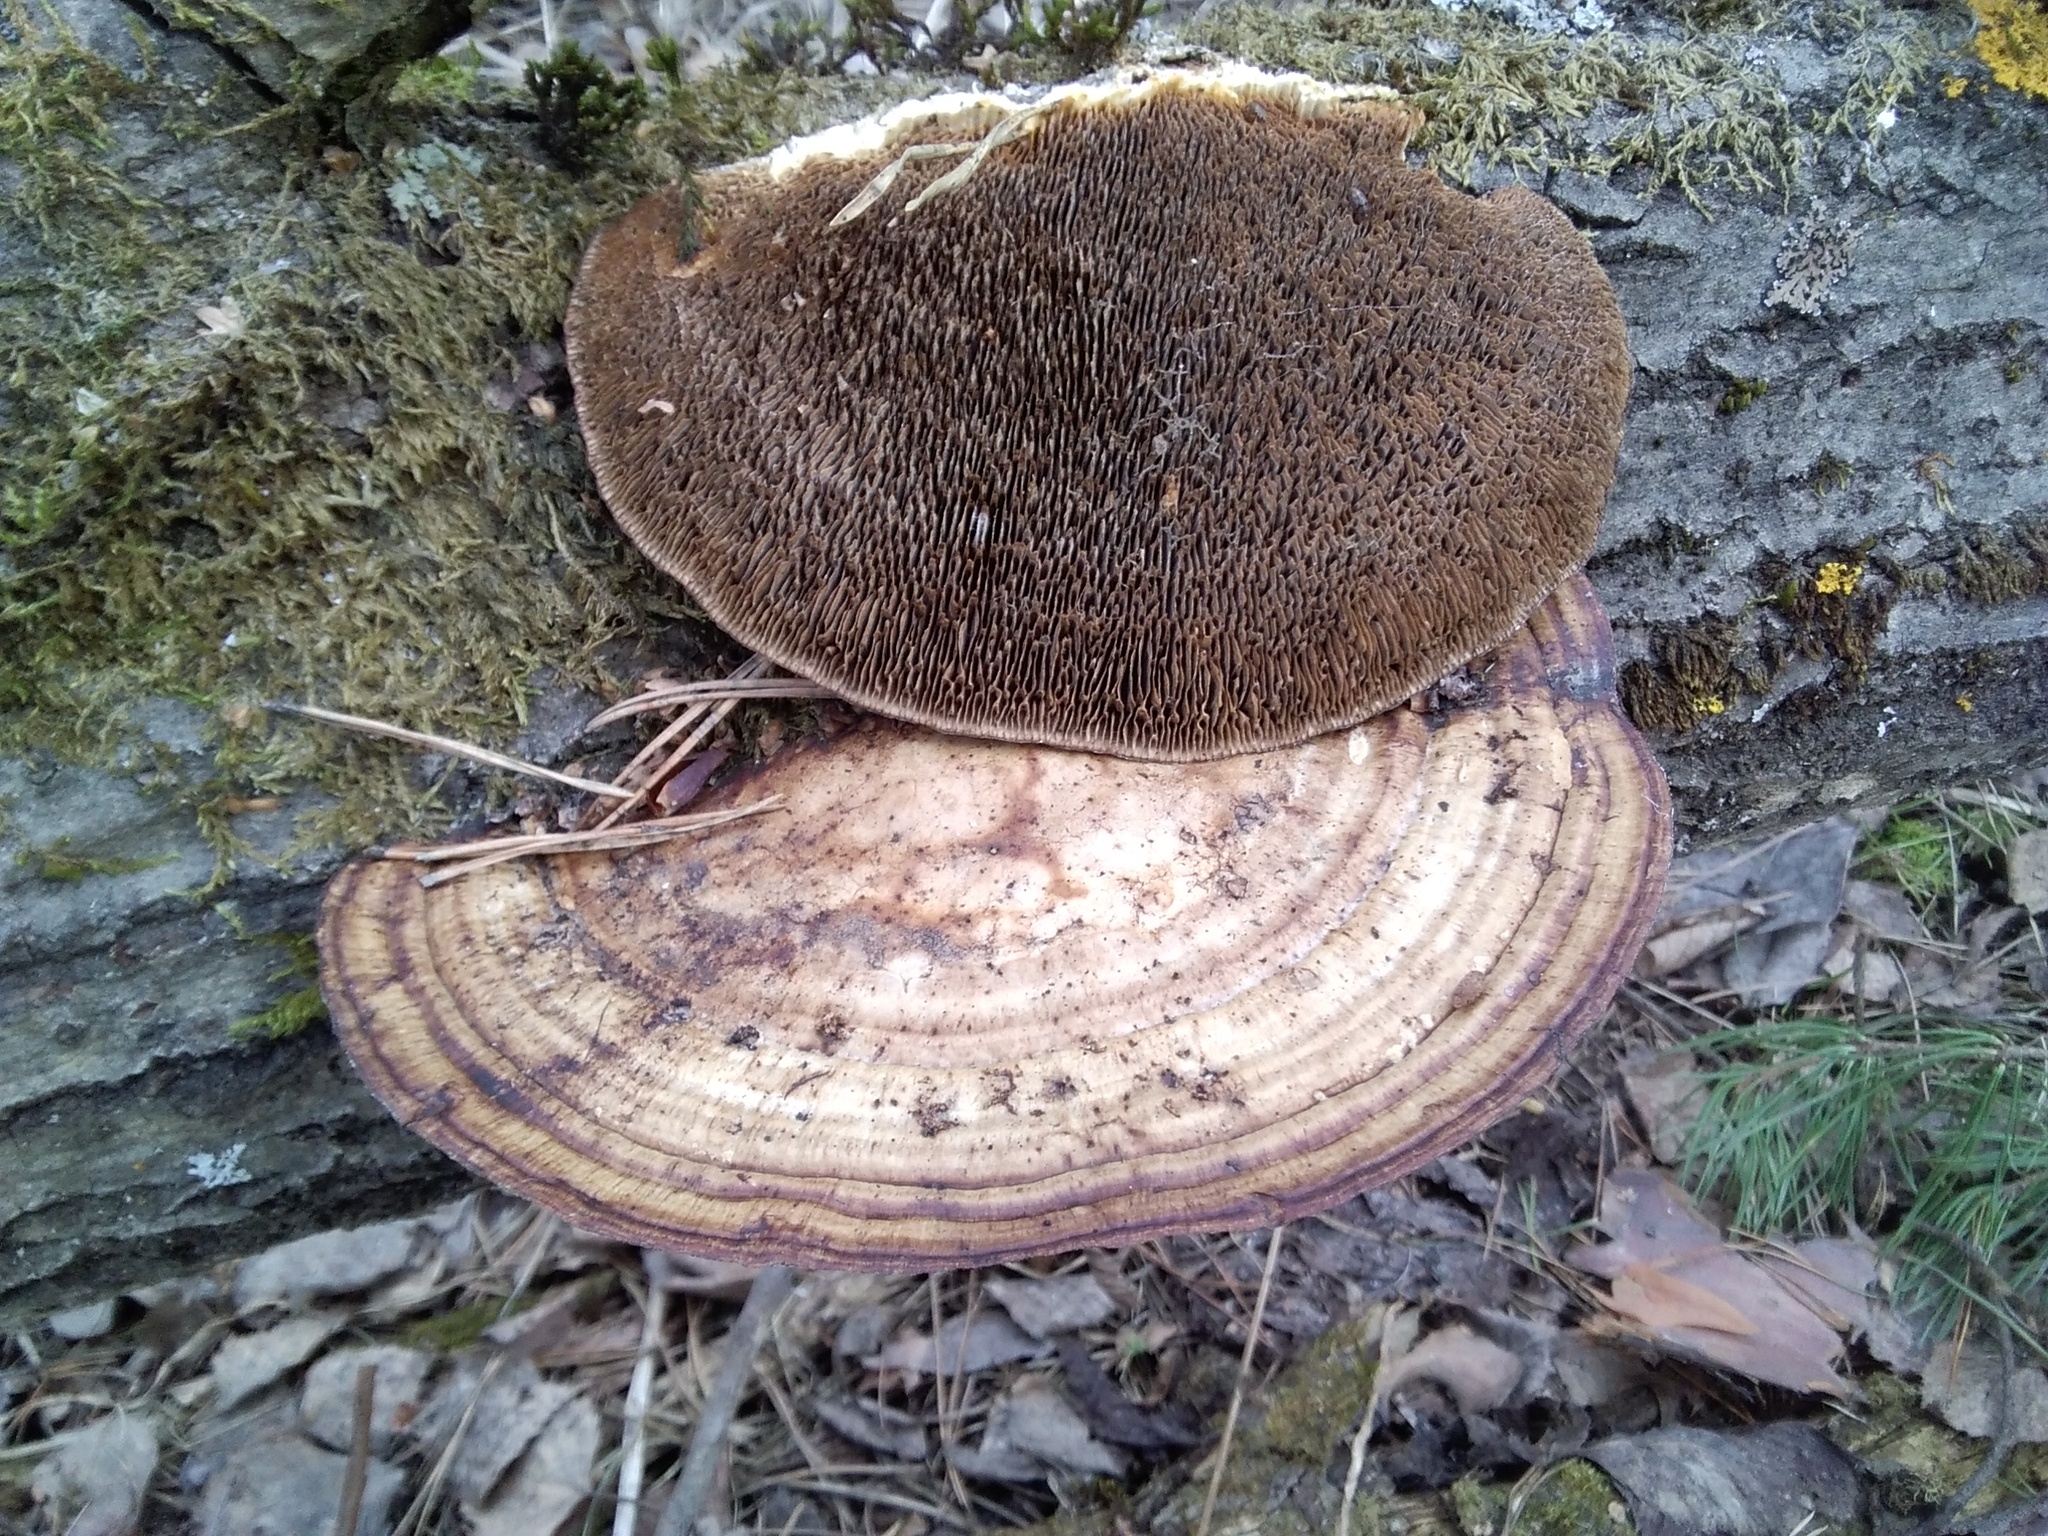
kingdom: Fungi
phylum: Basidiomycota
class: Agaricomycetes
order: Polyporales
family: Polyporaceae
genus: Daedaleopsis
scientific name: Daedaleopsis confragosa
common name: Blushing bracket
